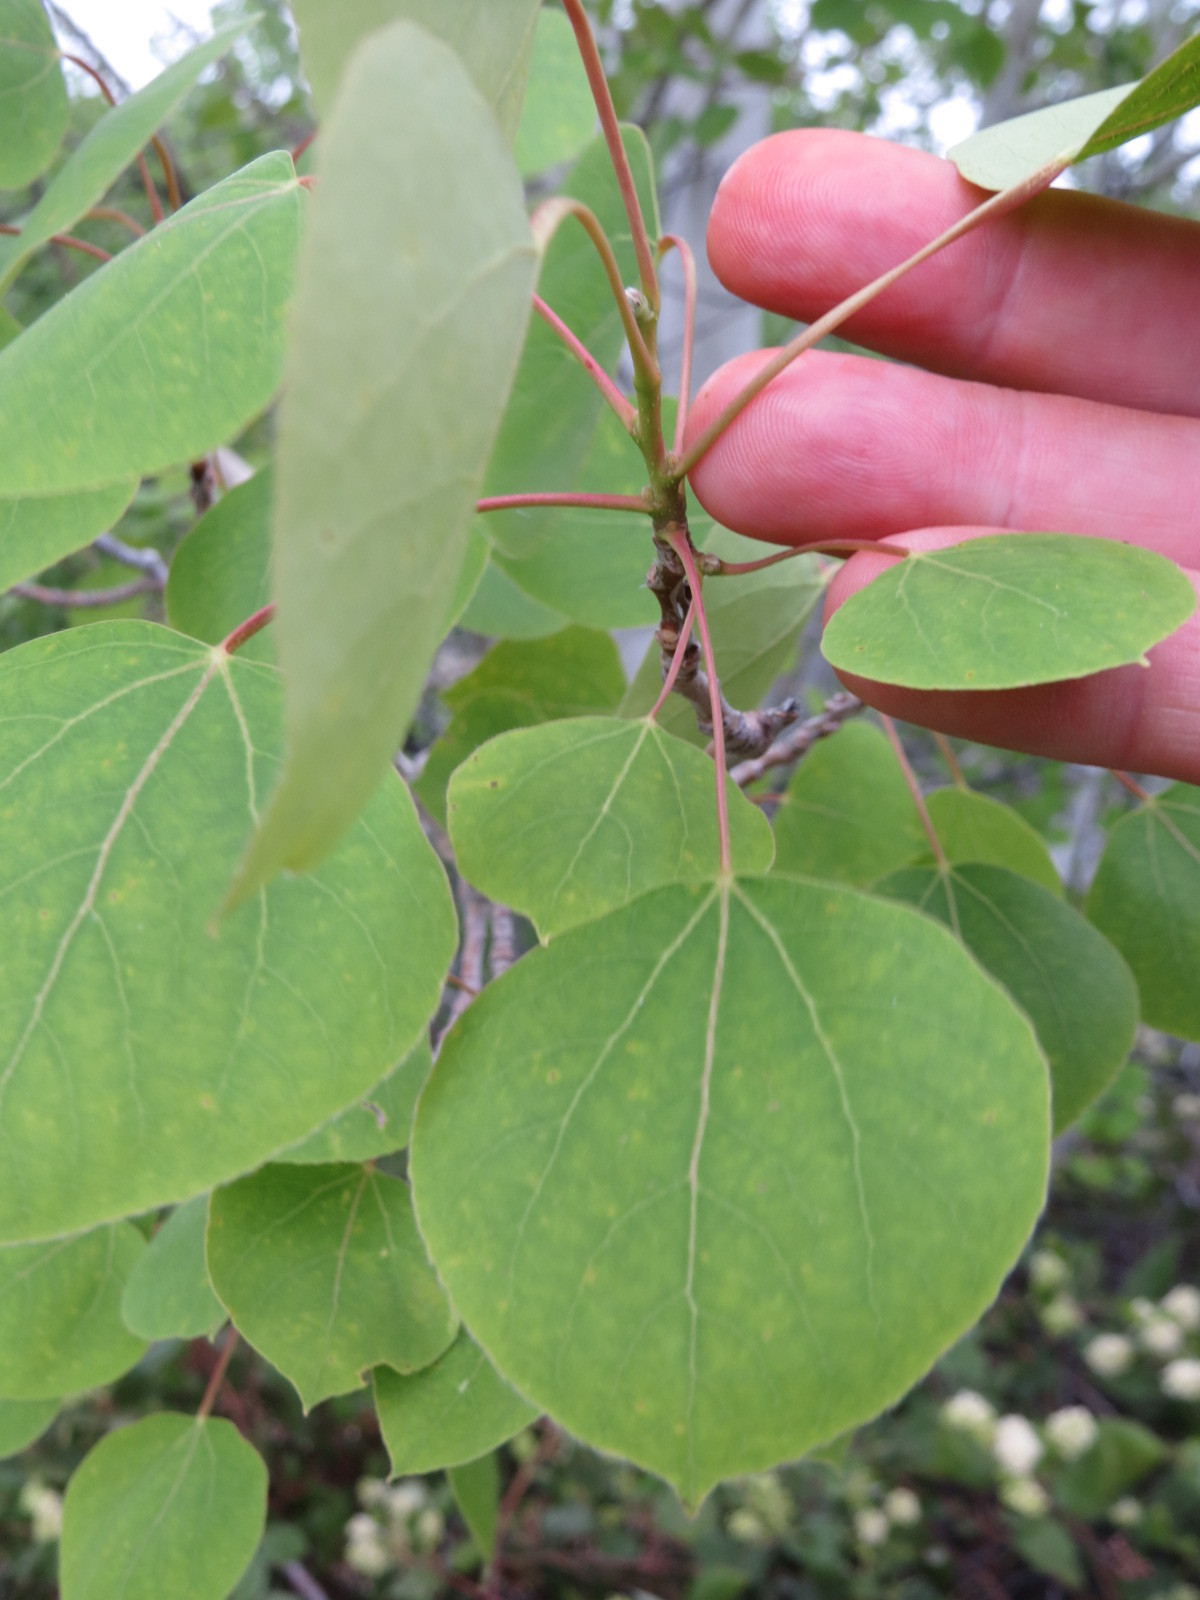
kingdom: Plantae
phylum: Tracheophyta
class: Magnoliopsida
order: Malpighiales
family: Salicaceae
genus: Populus
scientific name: Populus tremuloides
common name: Quaking aspen
